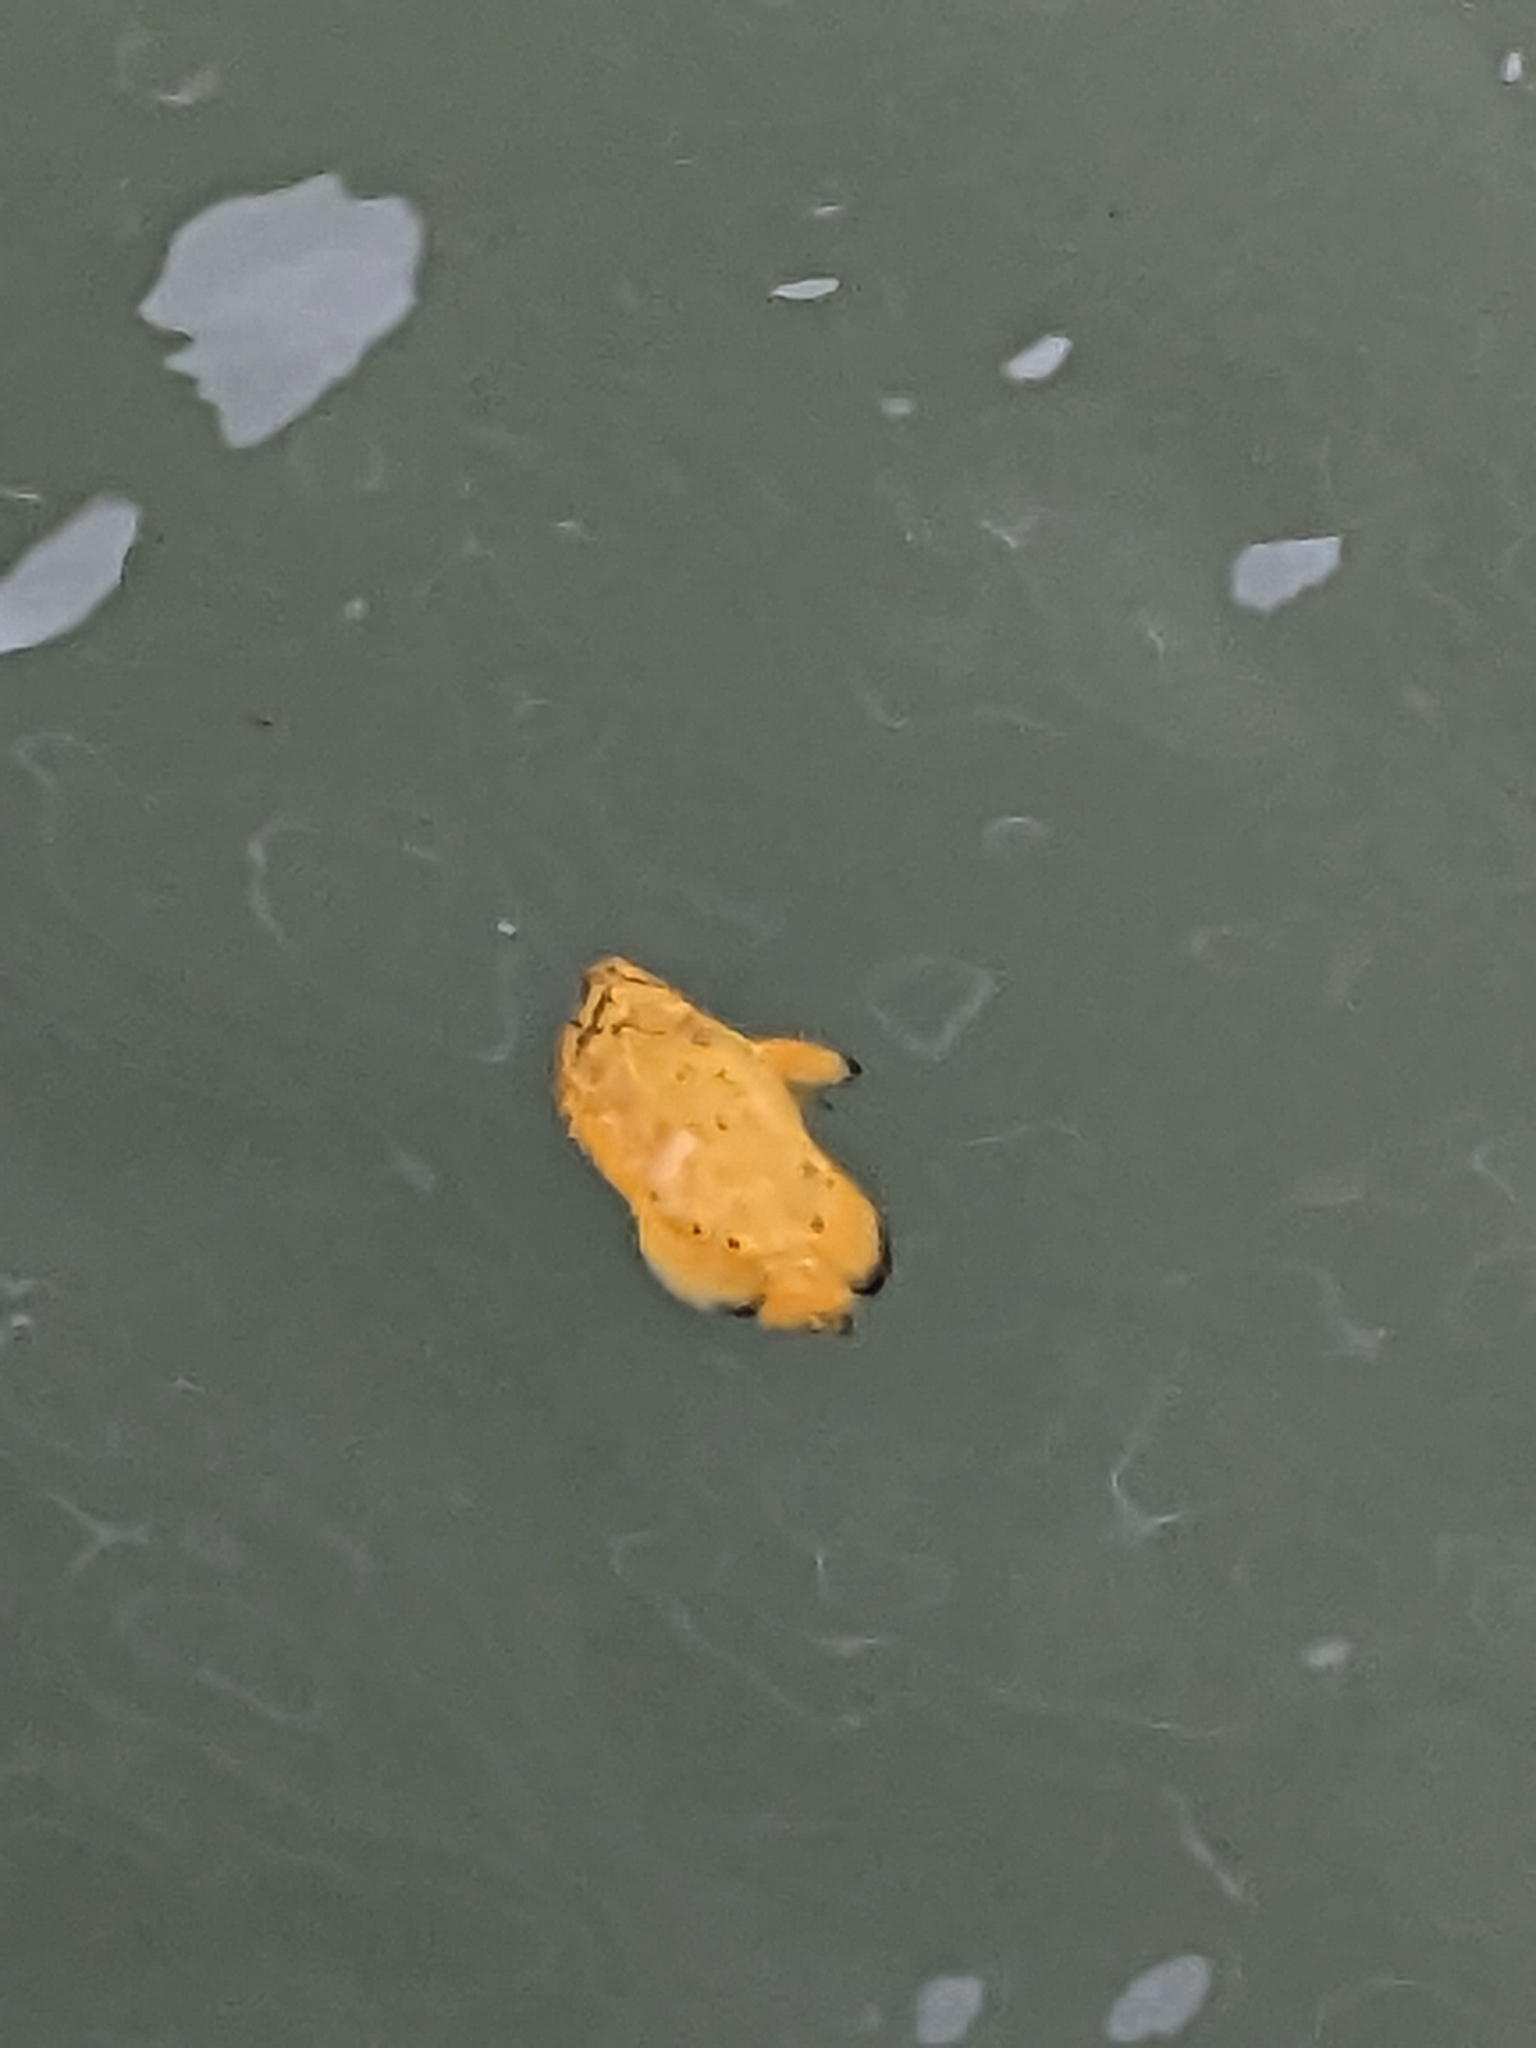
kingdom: Animalia
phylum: Chordata
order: Perciformes
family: Lobotidae
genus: Lobotes
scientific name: Lobotes surinamensis
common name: Atlantic tripletail
